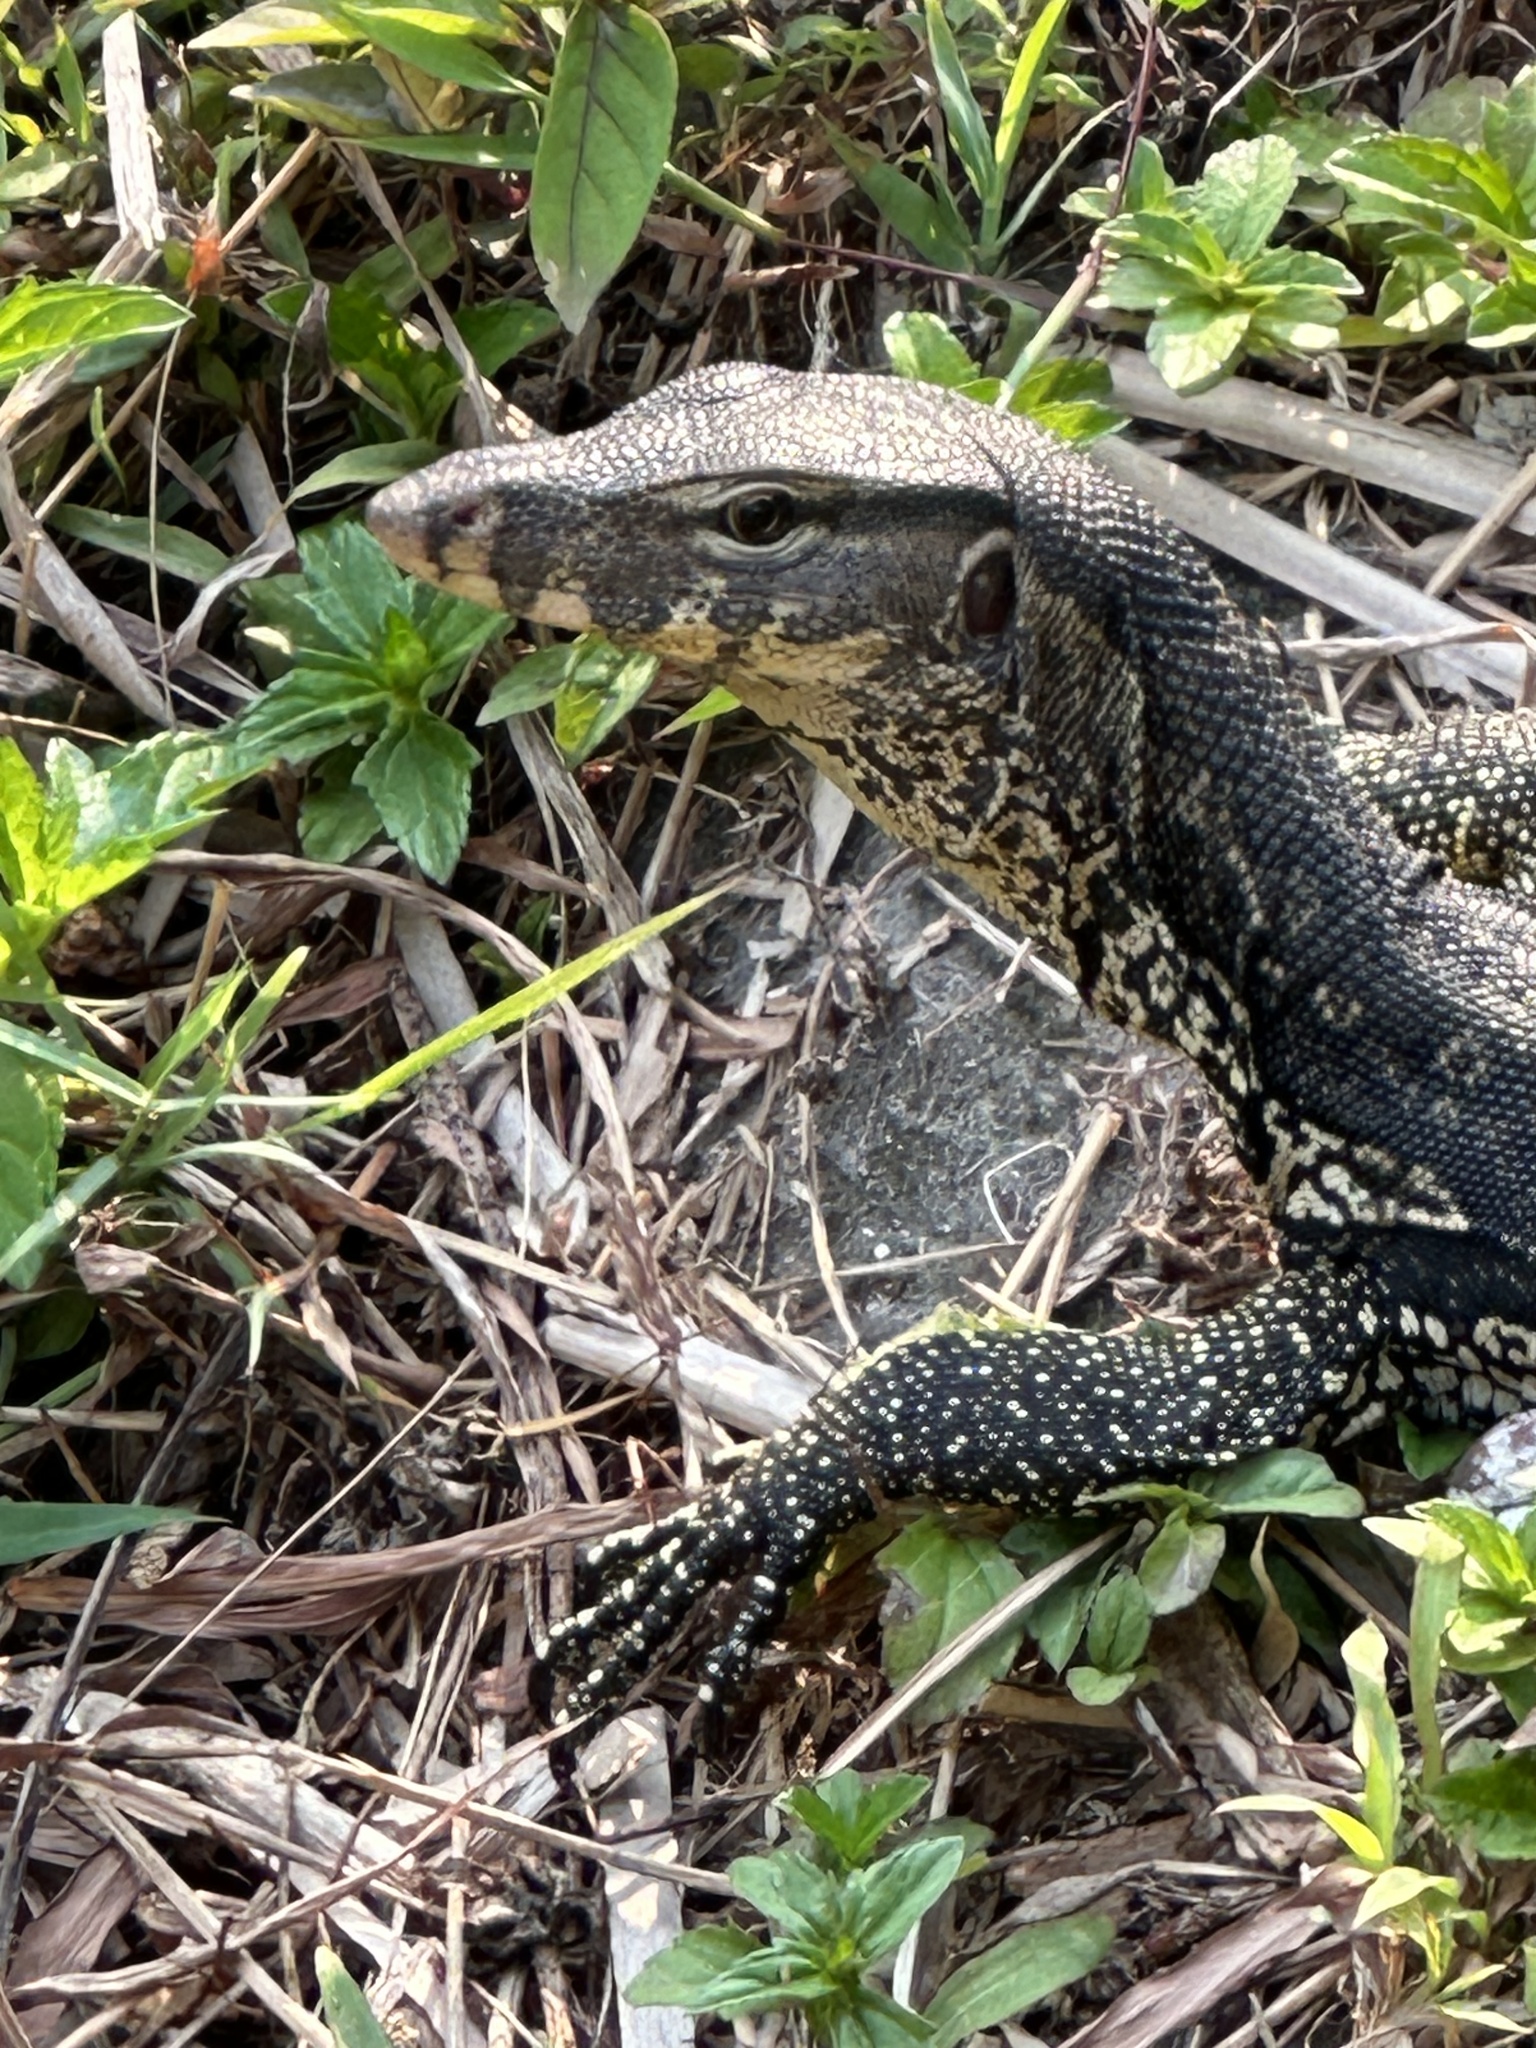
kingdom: Animalia
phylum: Chordata
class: Squamata
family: Varanidae
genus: Varanus
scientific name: Varanus salvator
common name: Common water monitor
